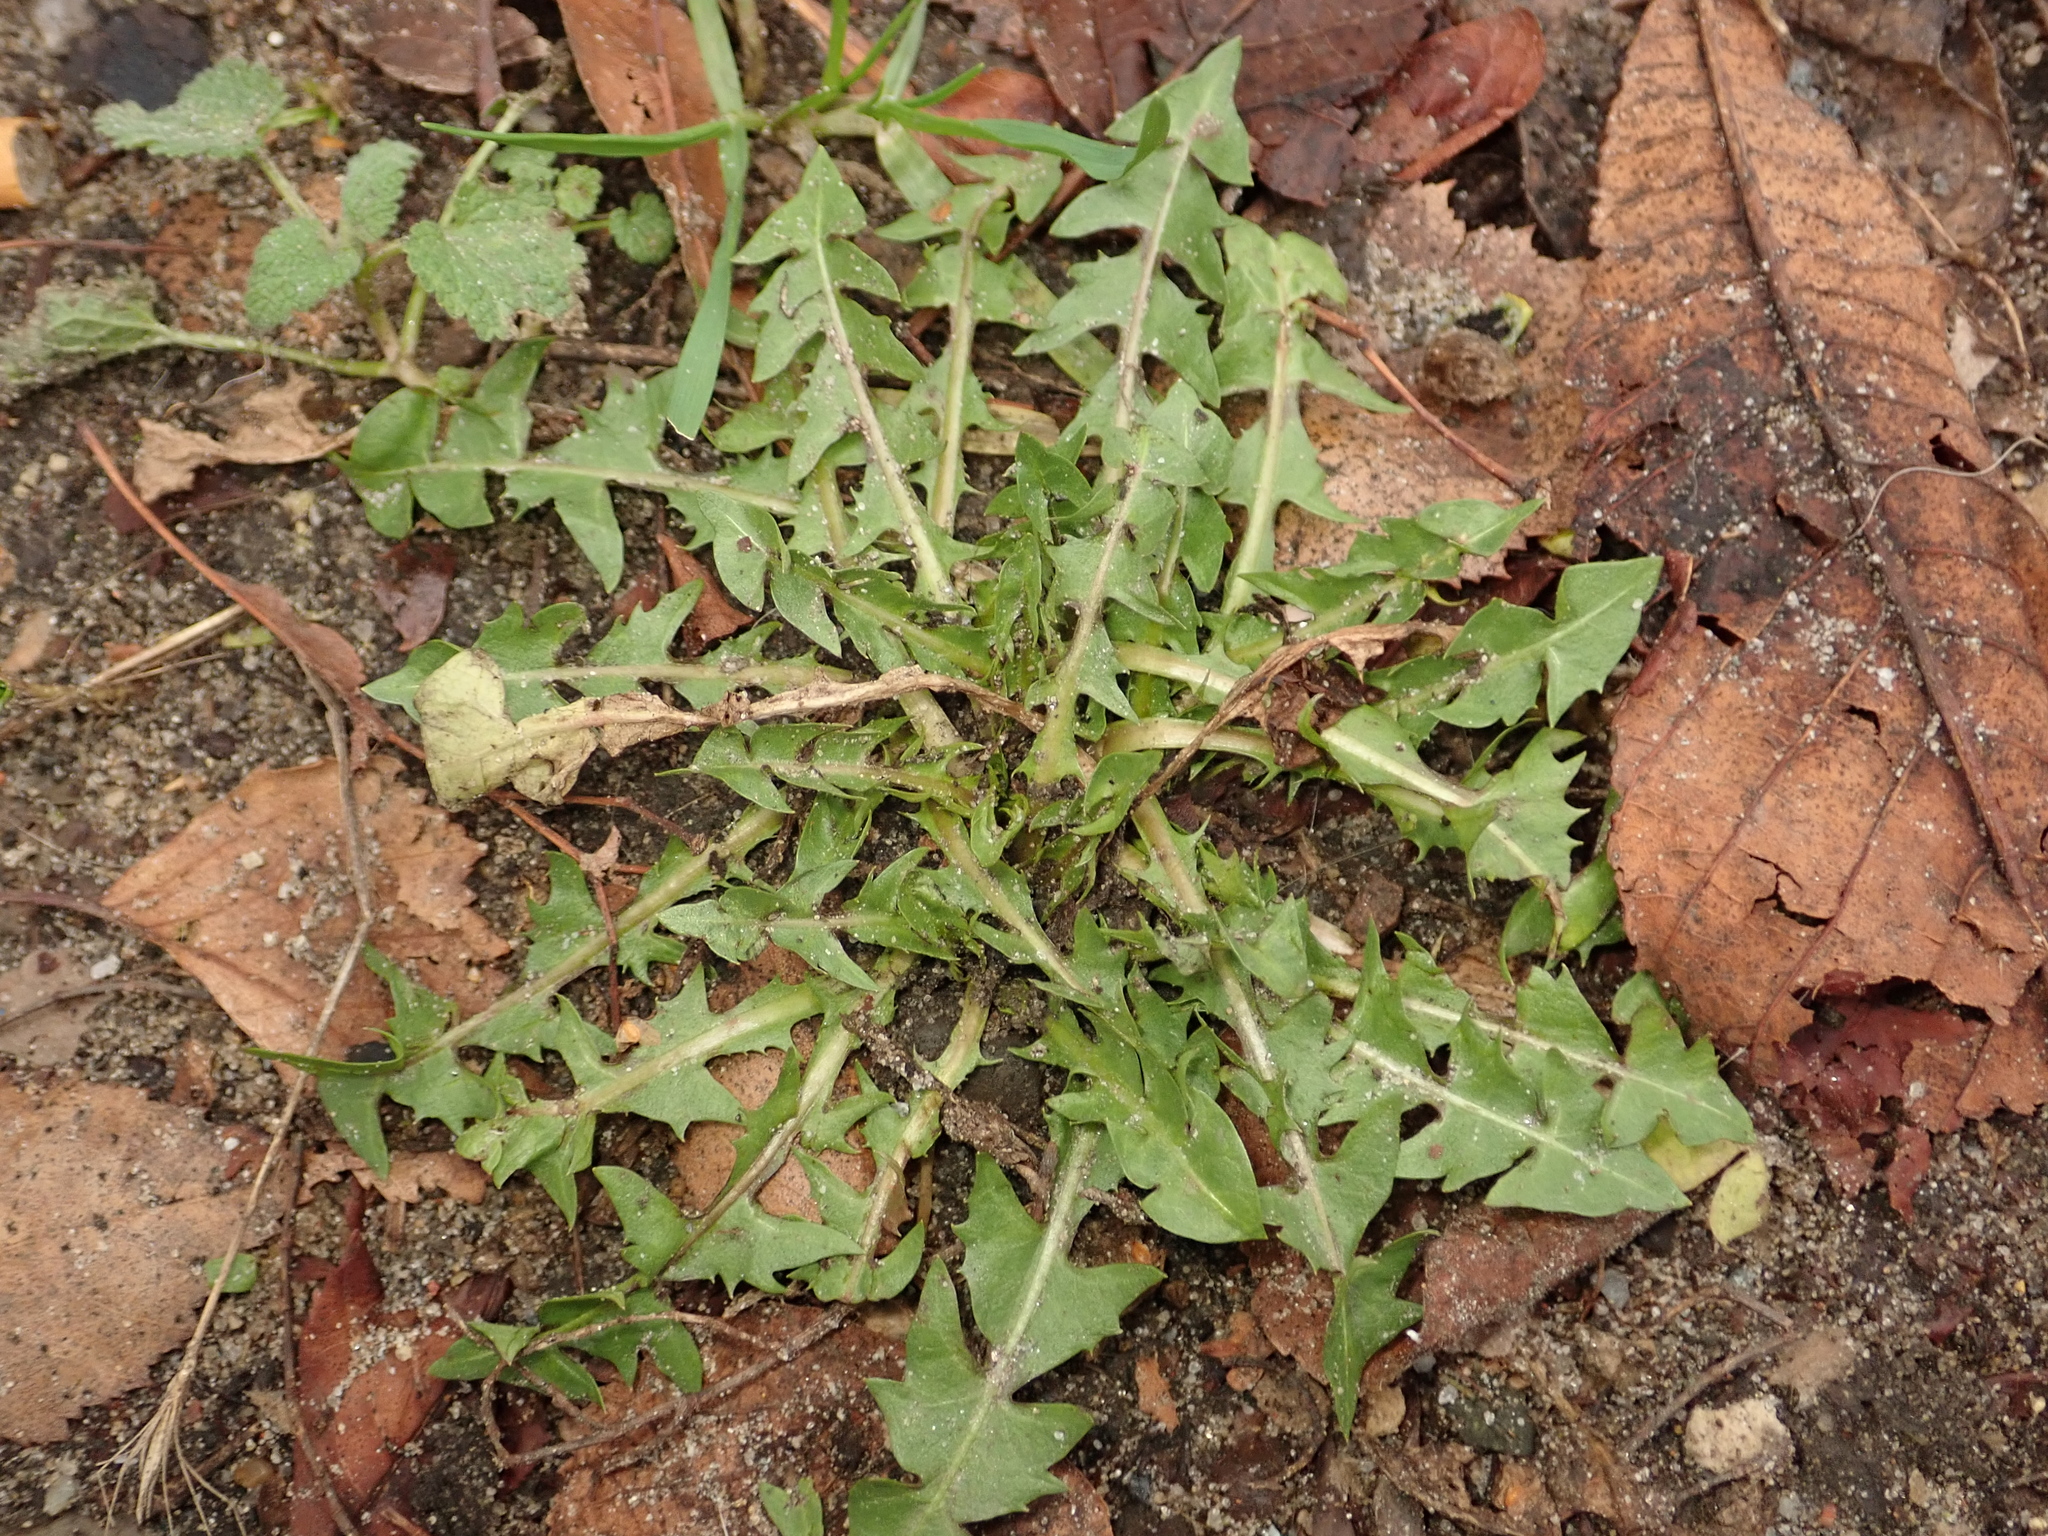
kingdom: Plantae
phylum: Tracheophyta
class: Magnoliopsida
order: Asterales
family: Asteraceae
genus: Taraxacum
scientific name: Taraxacum officinale
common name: Common dandelion
